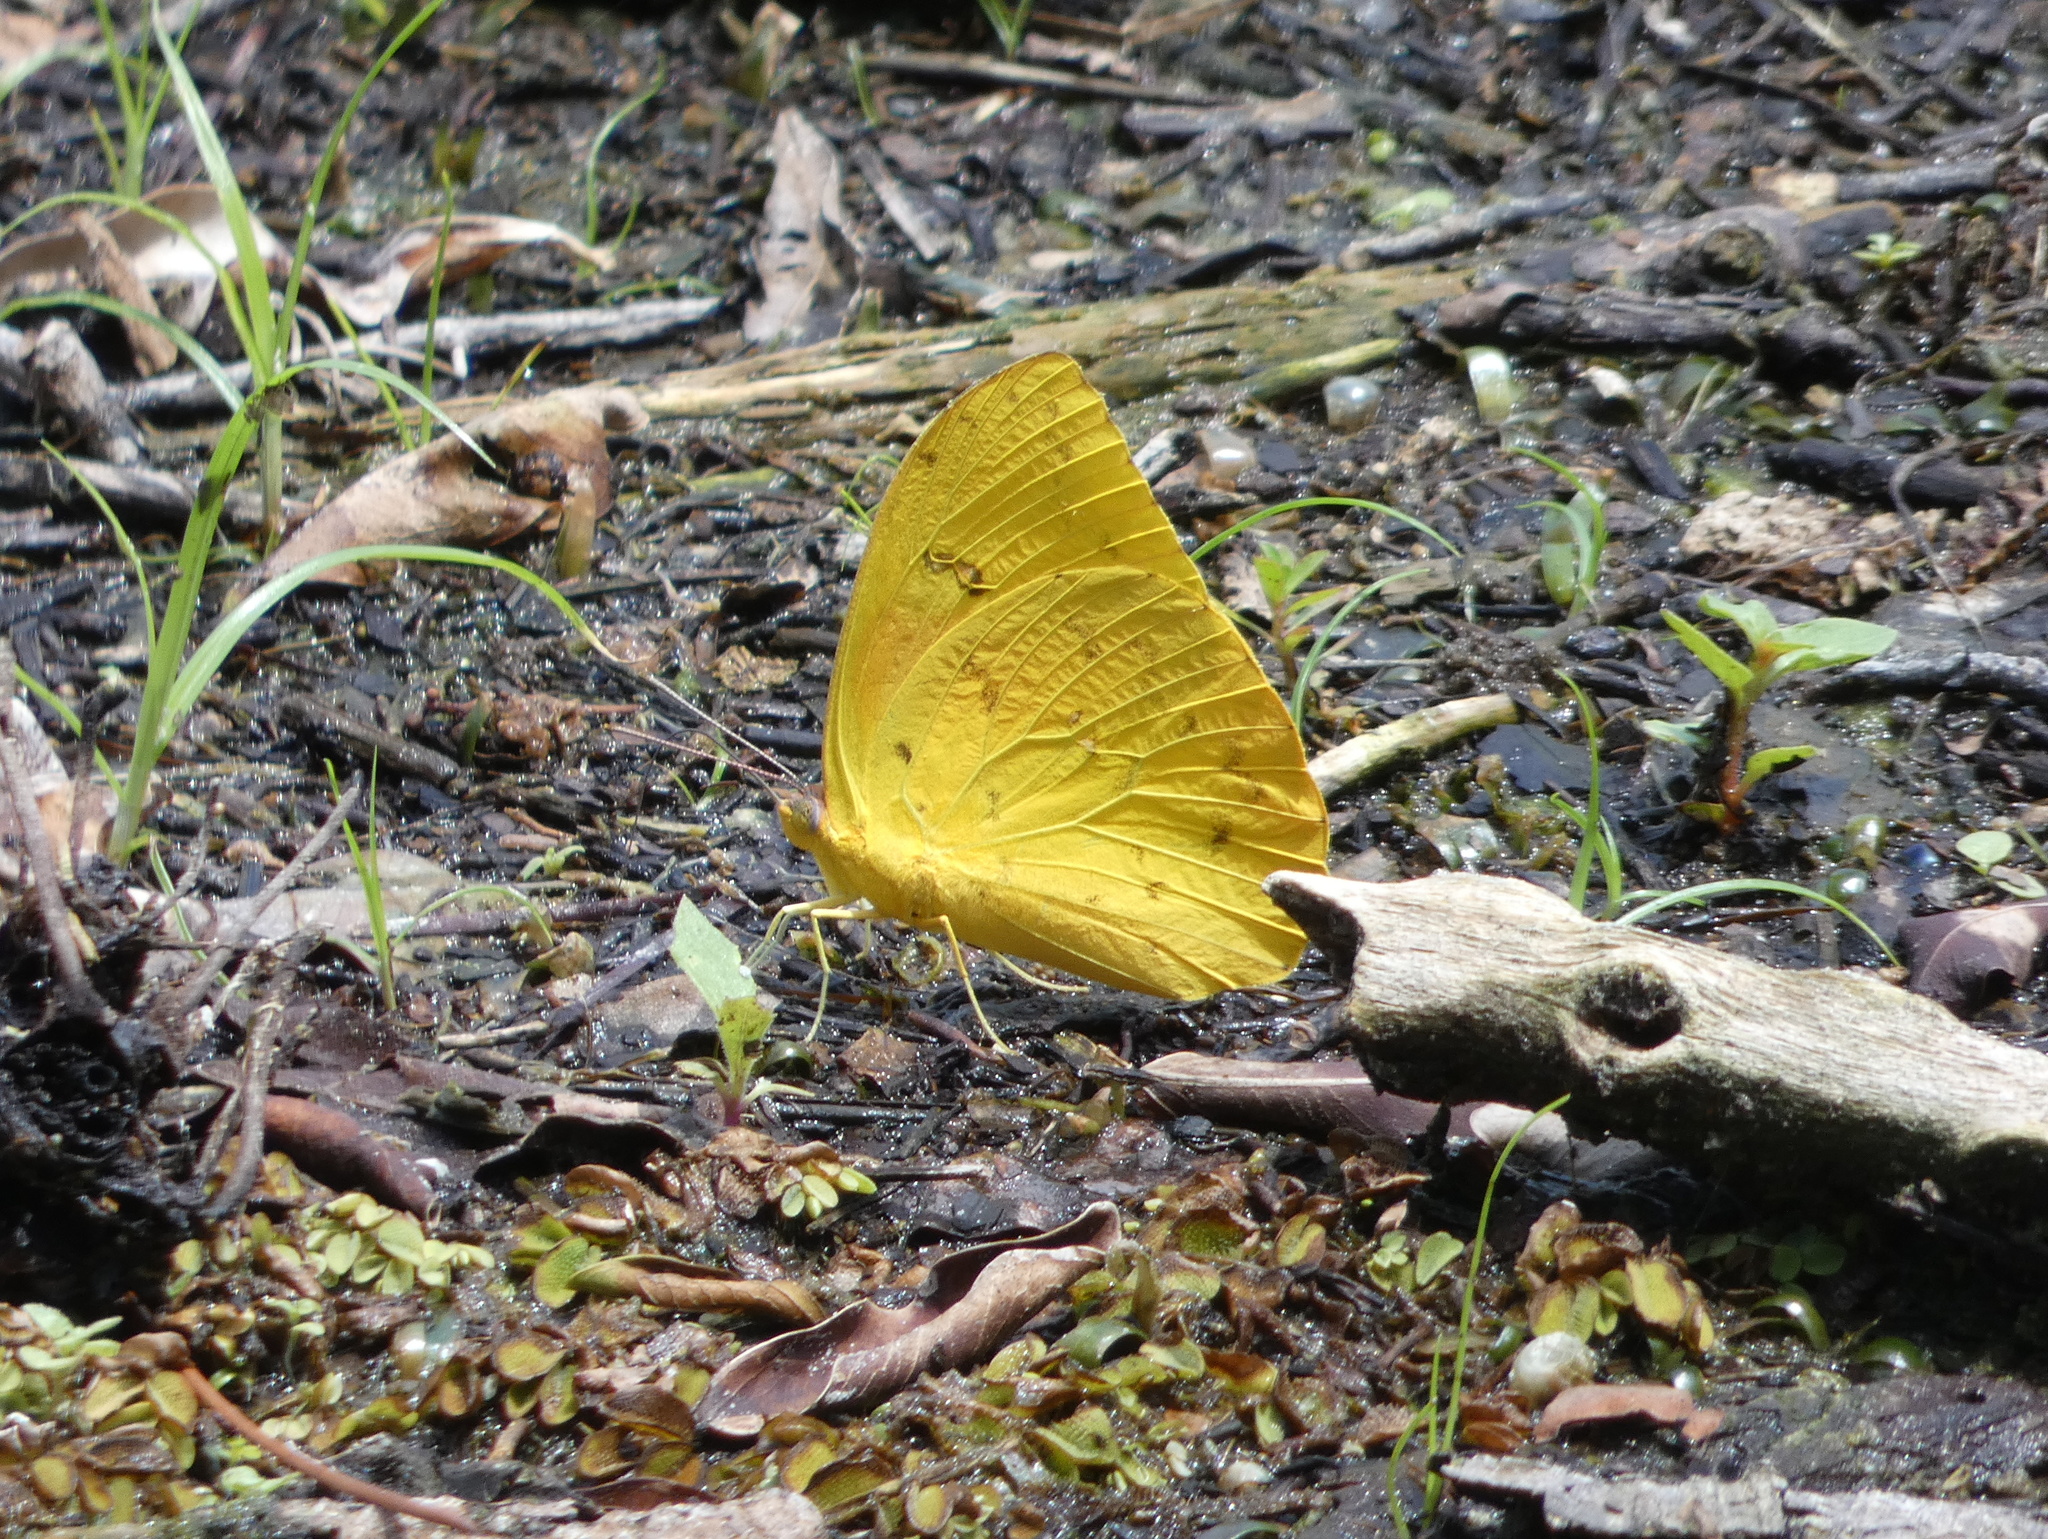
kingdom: Animalia
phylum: Arthropoda
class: Insecta
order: Lepidoptera
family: Pieridae
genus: Phoebis
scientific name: Phoebis philea
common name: Orange-barred giant sulphur
